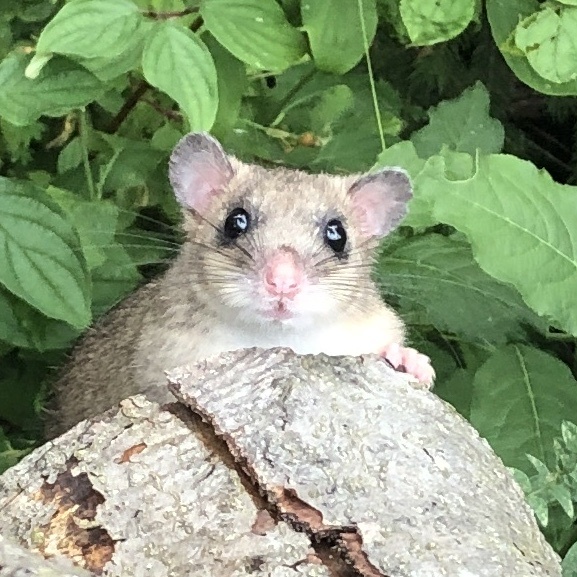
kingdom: Animalia
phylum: Chordata
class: Mammalia
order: Rodentia
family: Gliridae
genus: Glis
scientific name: Glis glis
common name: Fat dormouse
